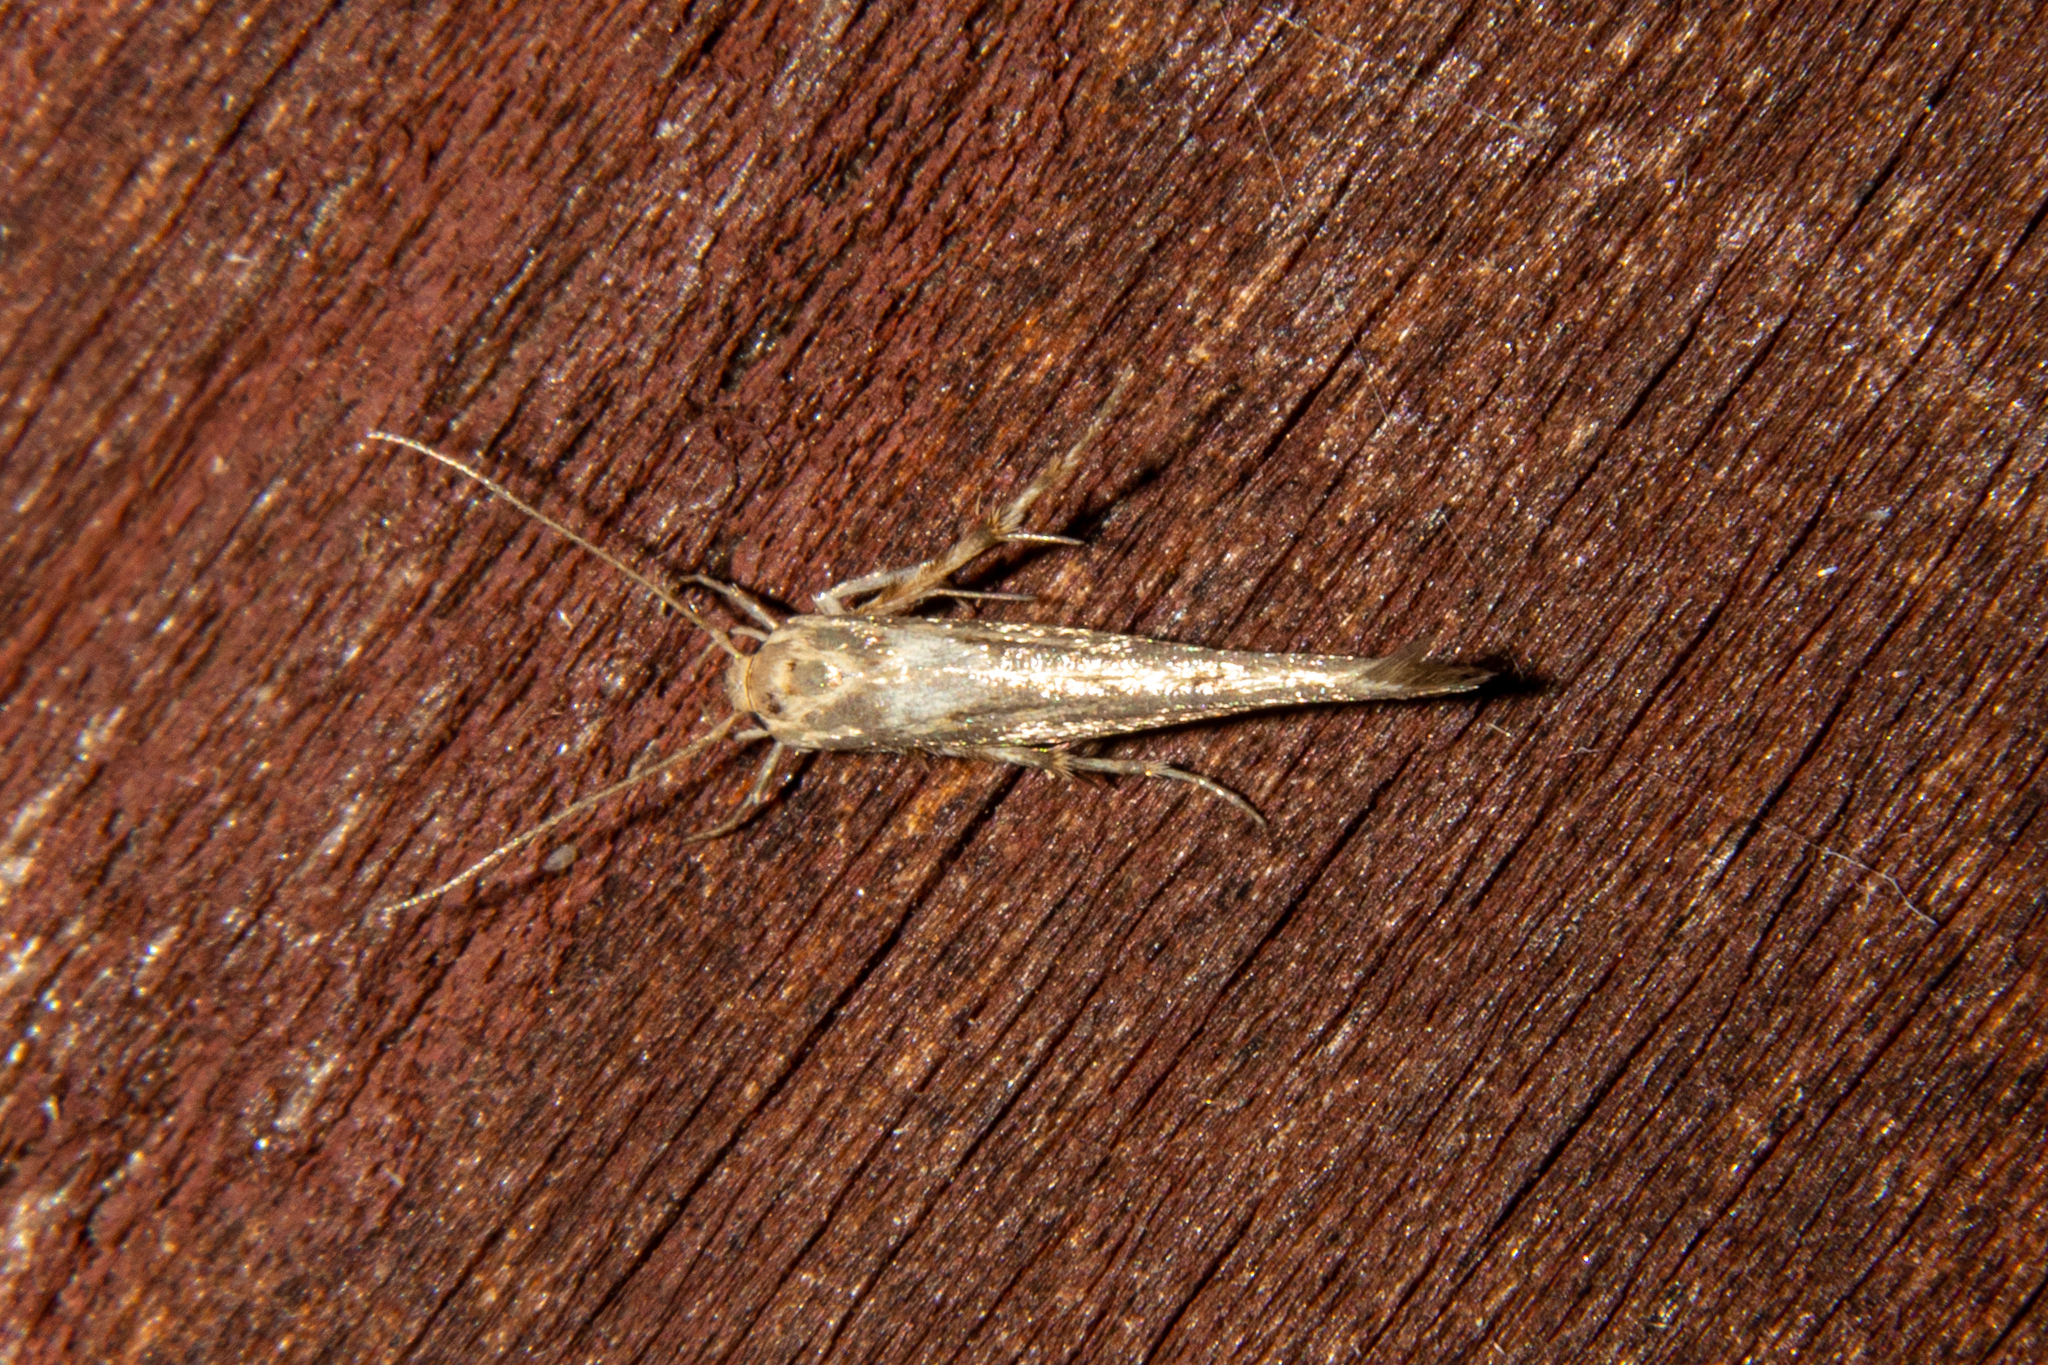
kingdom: Animalia
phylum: Arthropoda
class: Insecta
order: Lepidoptera
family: Stathmopodidae
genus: Stathmopoda
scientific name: Stathmopoda plumbiflua
